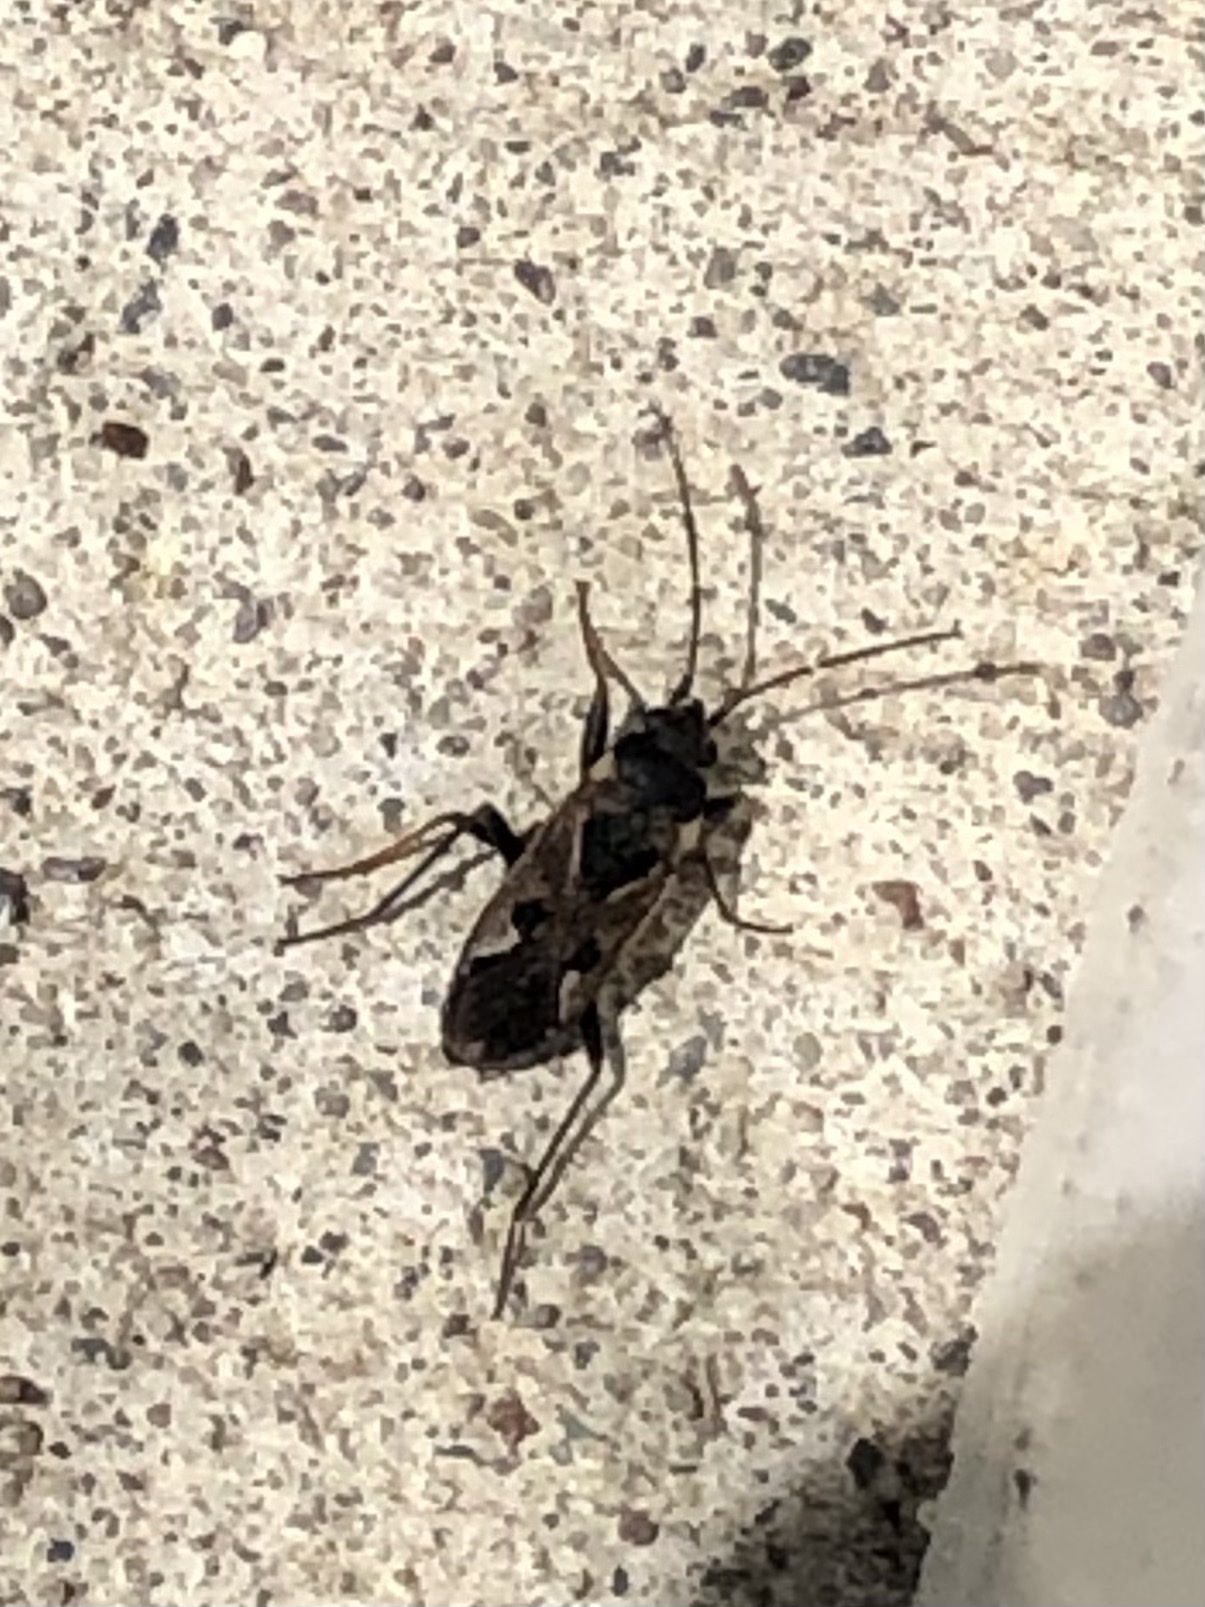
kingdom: Animalia
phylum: Arthropoda
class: Insecta
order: Hemiptera
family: Rhyparochromidae
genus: Rhyparochromus
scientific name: Rhyparochromus vulgaris
